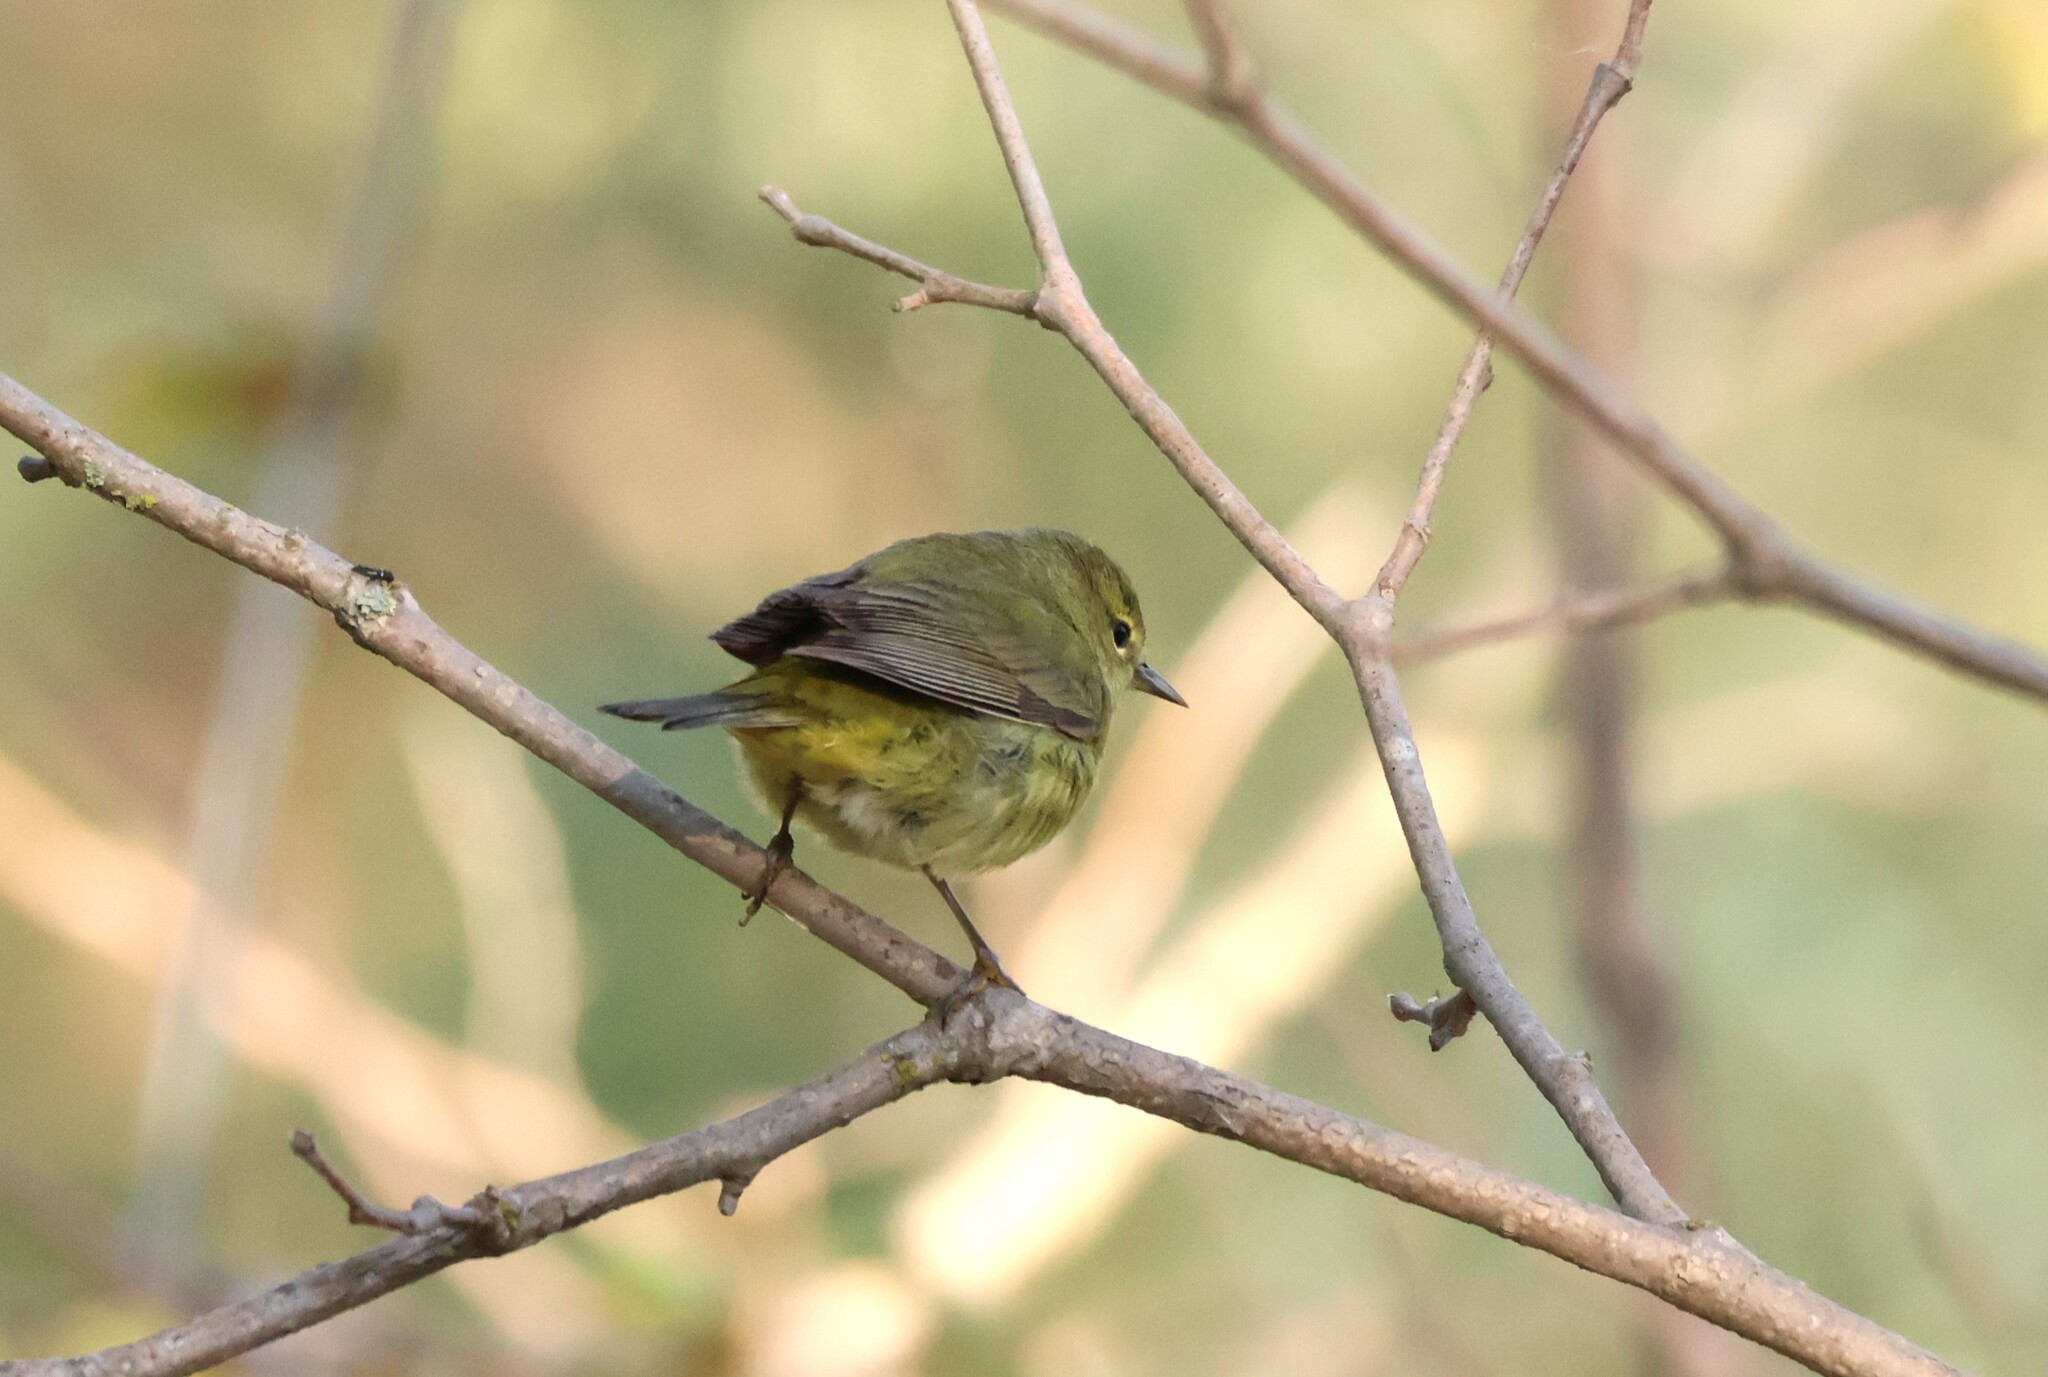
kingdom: Animalia
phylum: Chordata
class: Aves
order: Passeriformes
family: Parulidae
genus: Leiothlypis
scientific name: Leiothlypis celata
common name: Orange-crowned warbler
